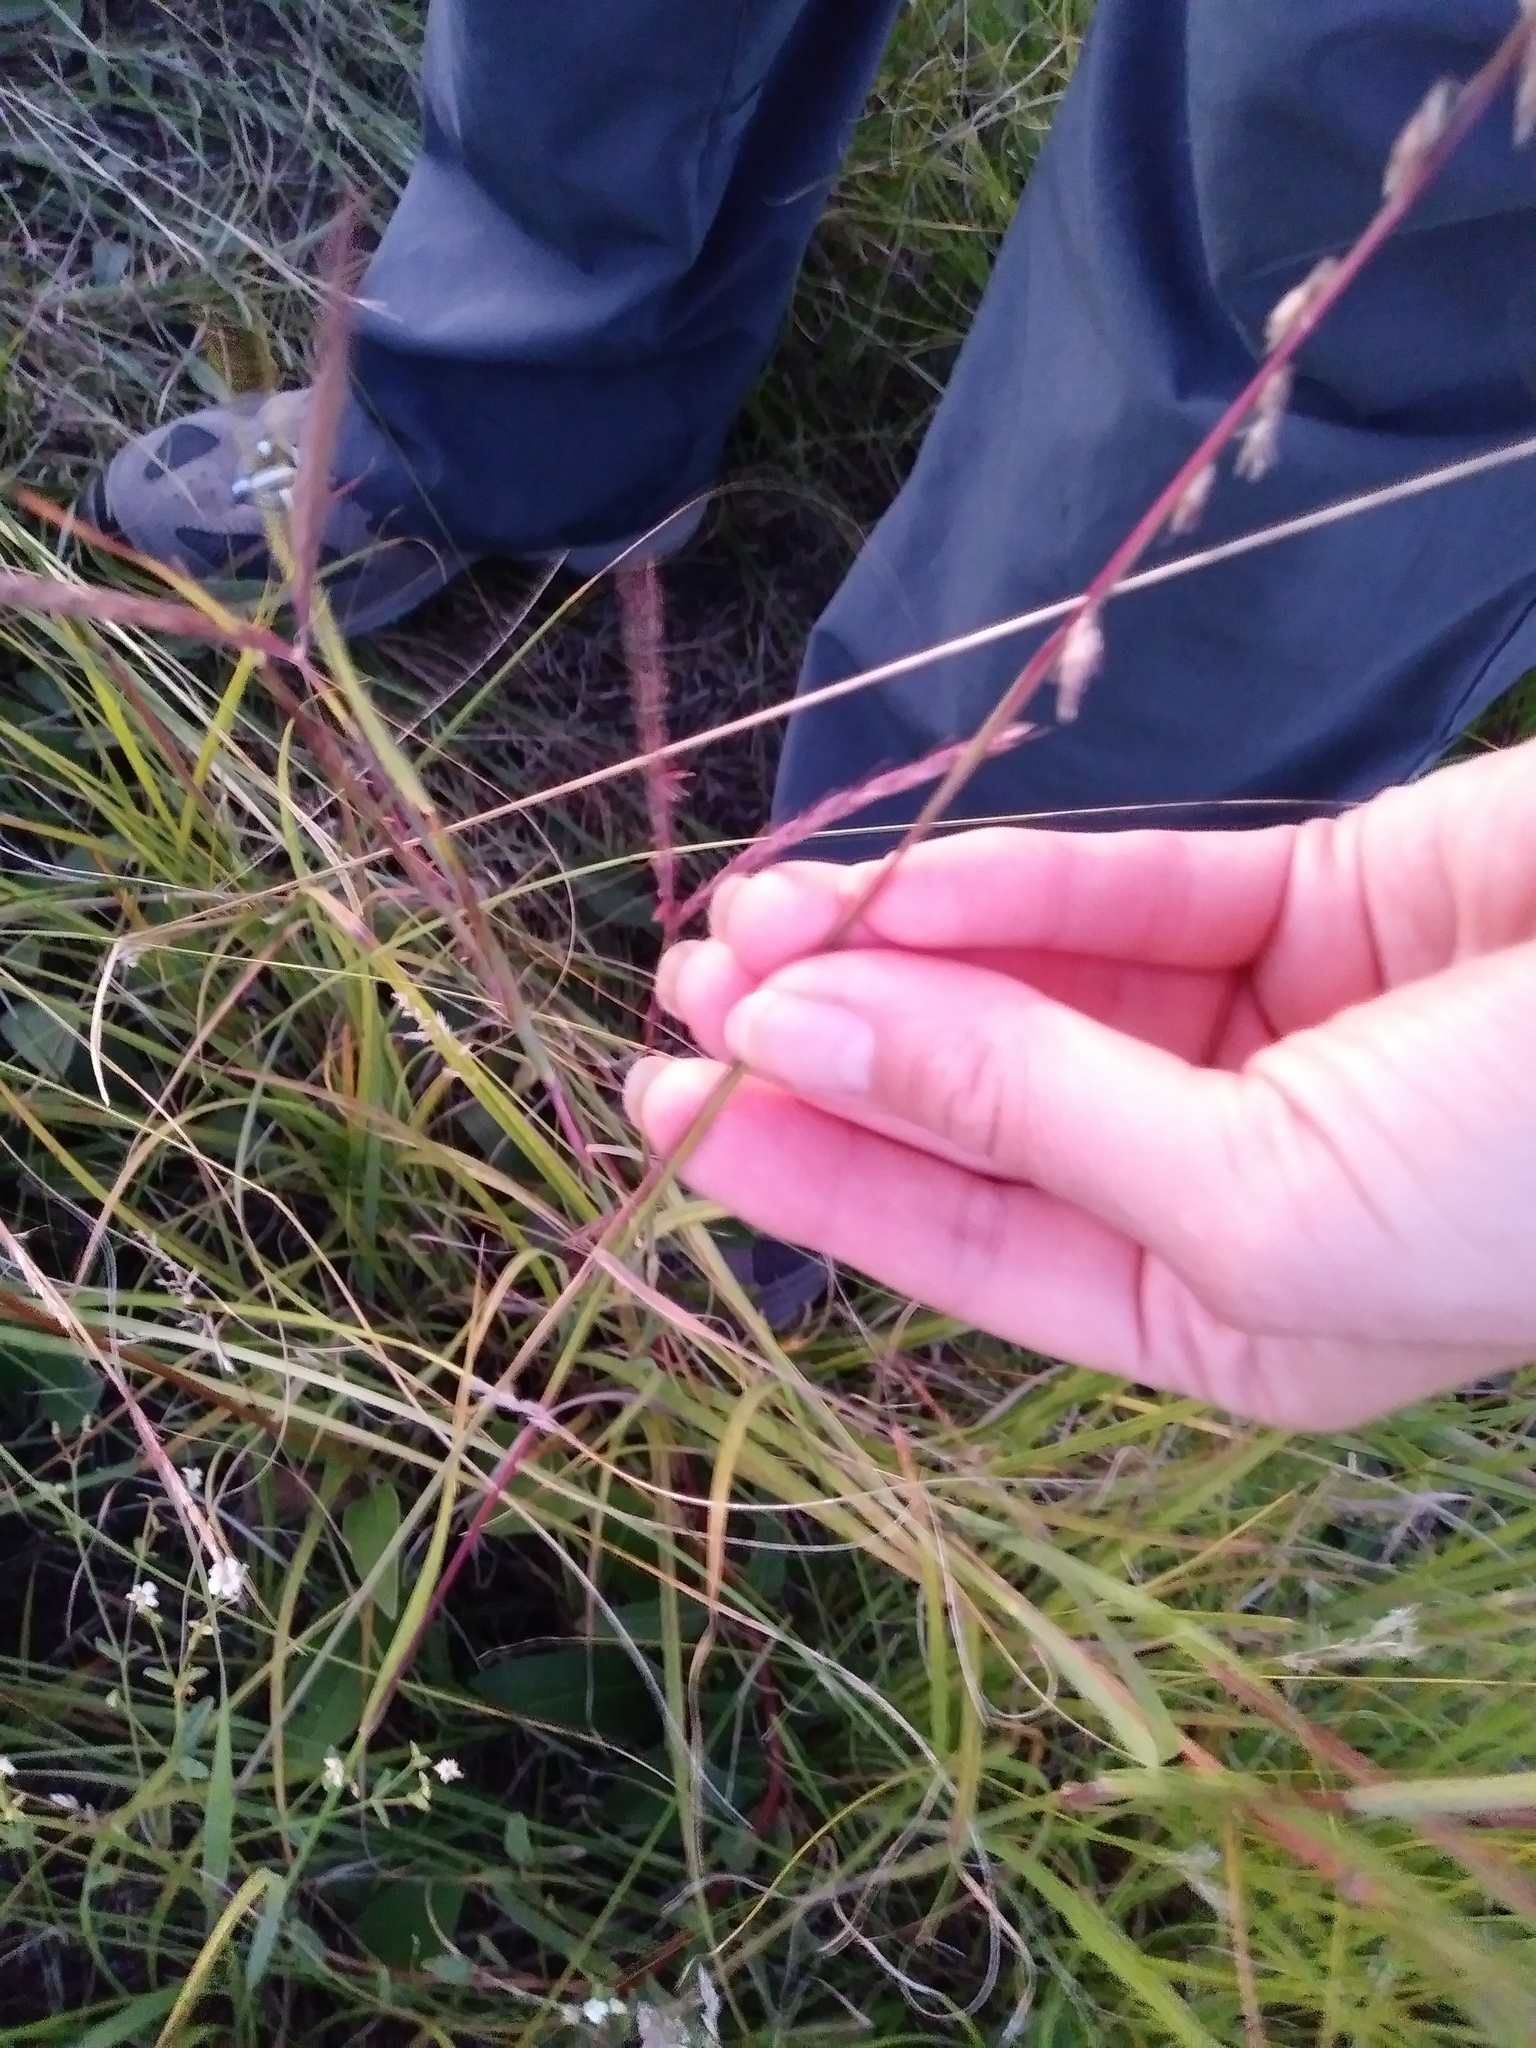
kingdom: Plantae
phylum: Tracheophyta
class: Liliopsida
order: Poales
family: Poaceae
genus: Bouteloua
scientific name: Bouteloua curtipendula
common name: Side-oats grama
